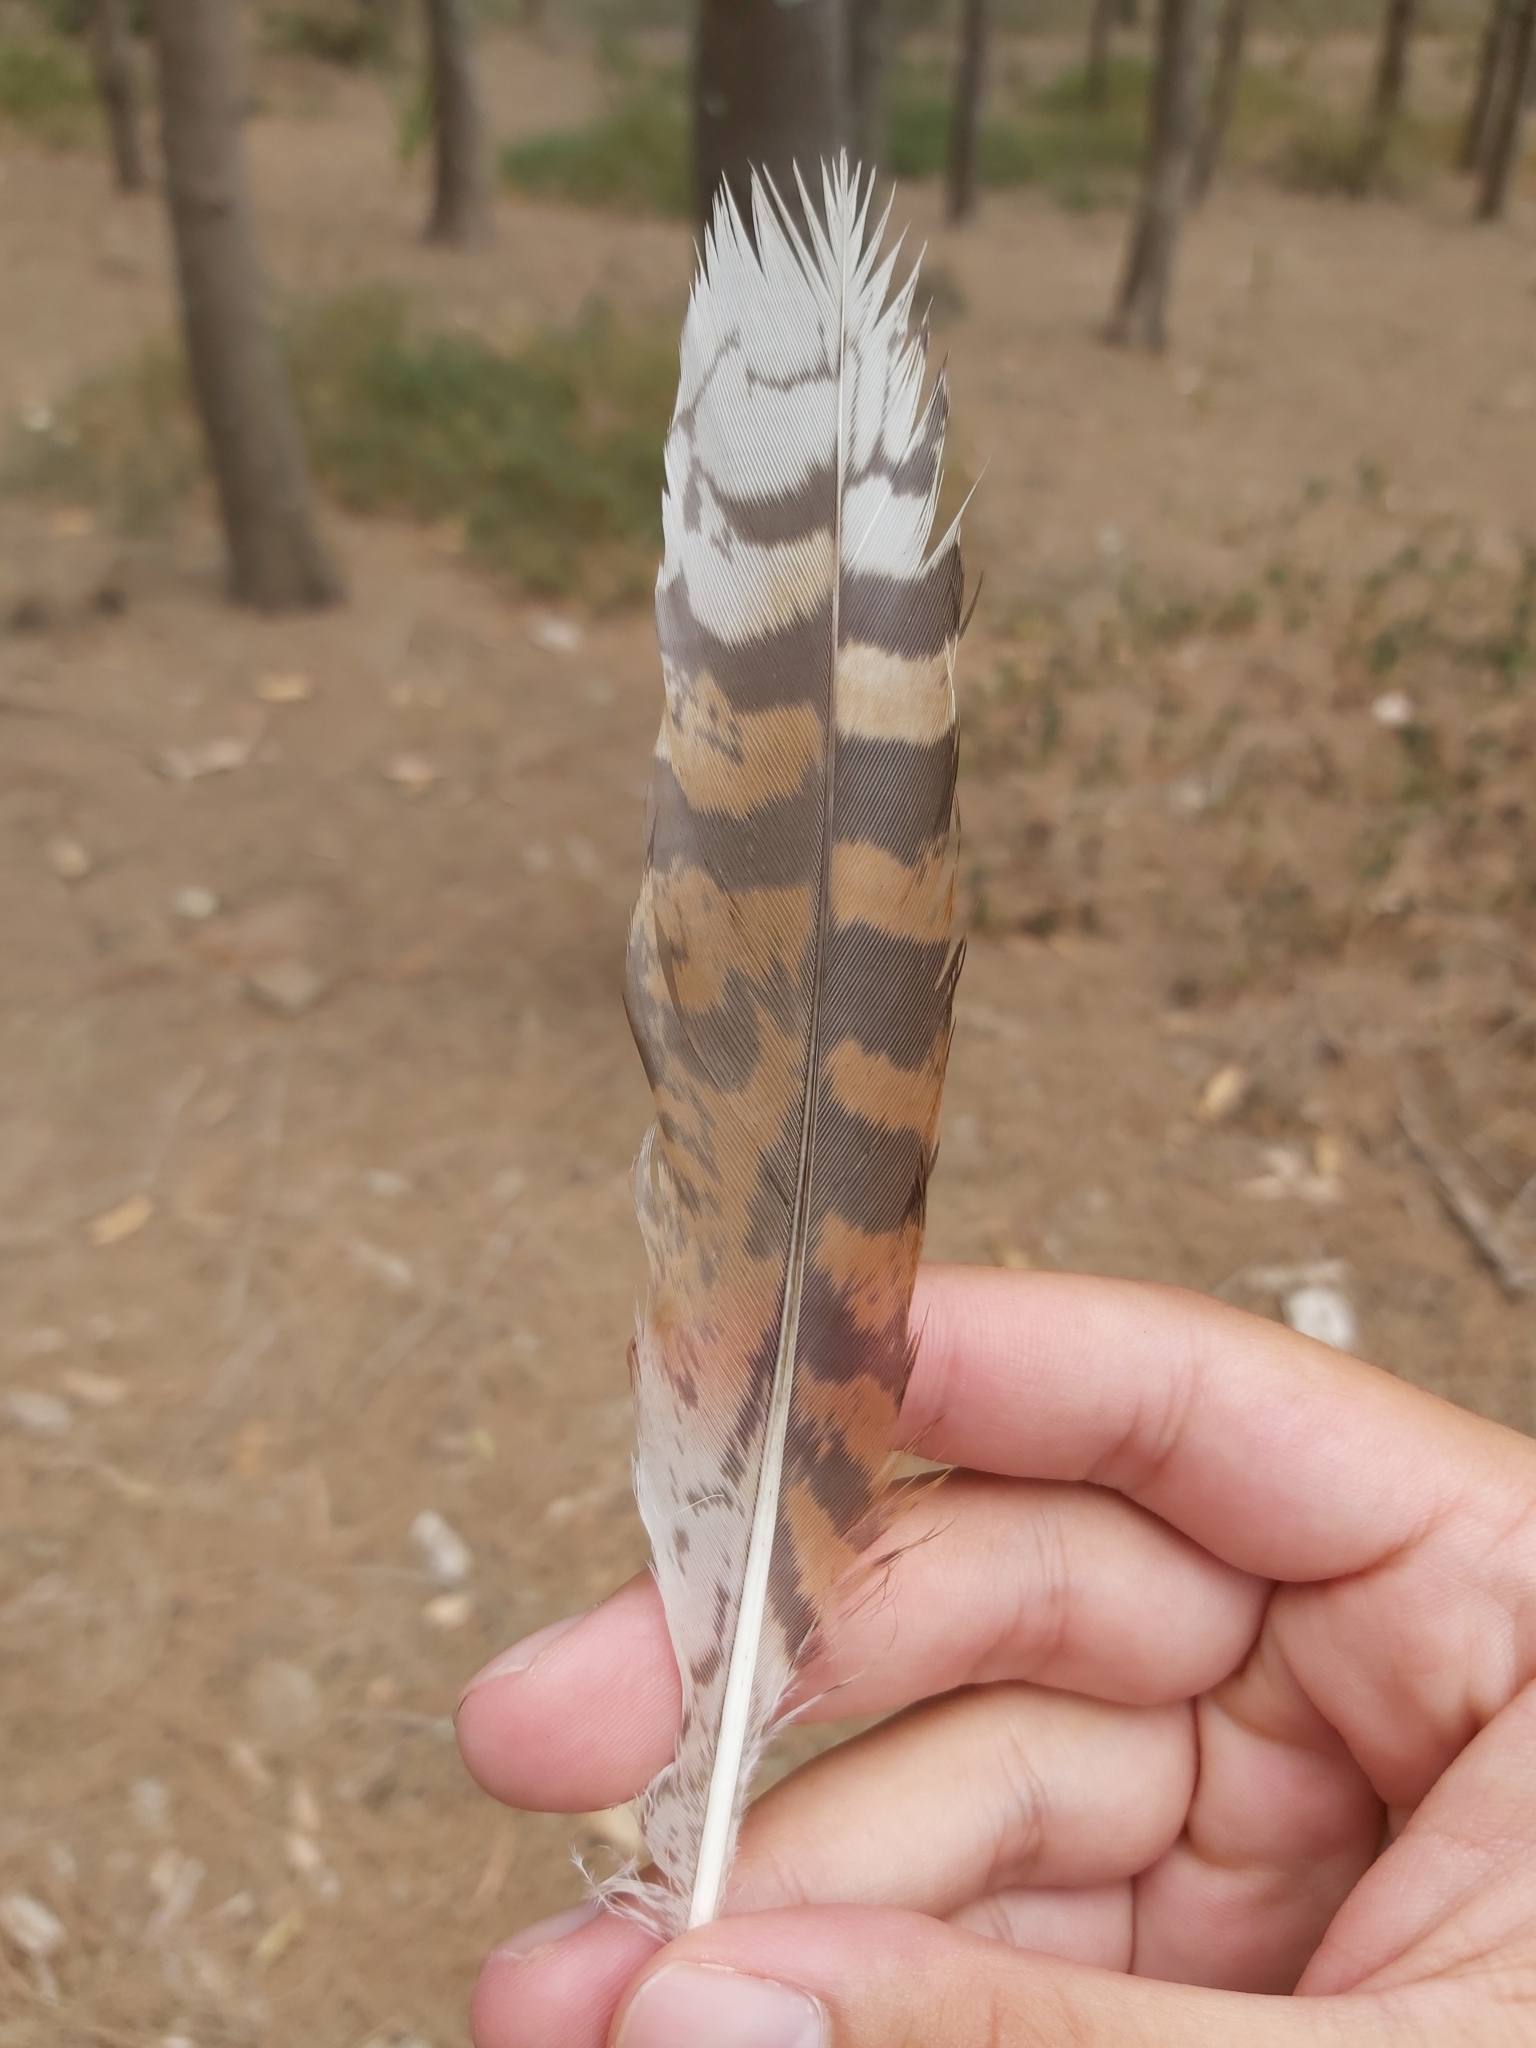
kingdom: Animalia
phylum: Chordata
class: Aves
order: Coraciiformes
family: Alcedinidae
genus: Dacelo
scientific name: Dacelo novaeguineae
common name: Laughing kookaburra
